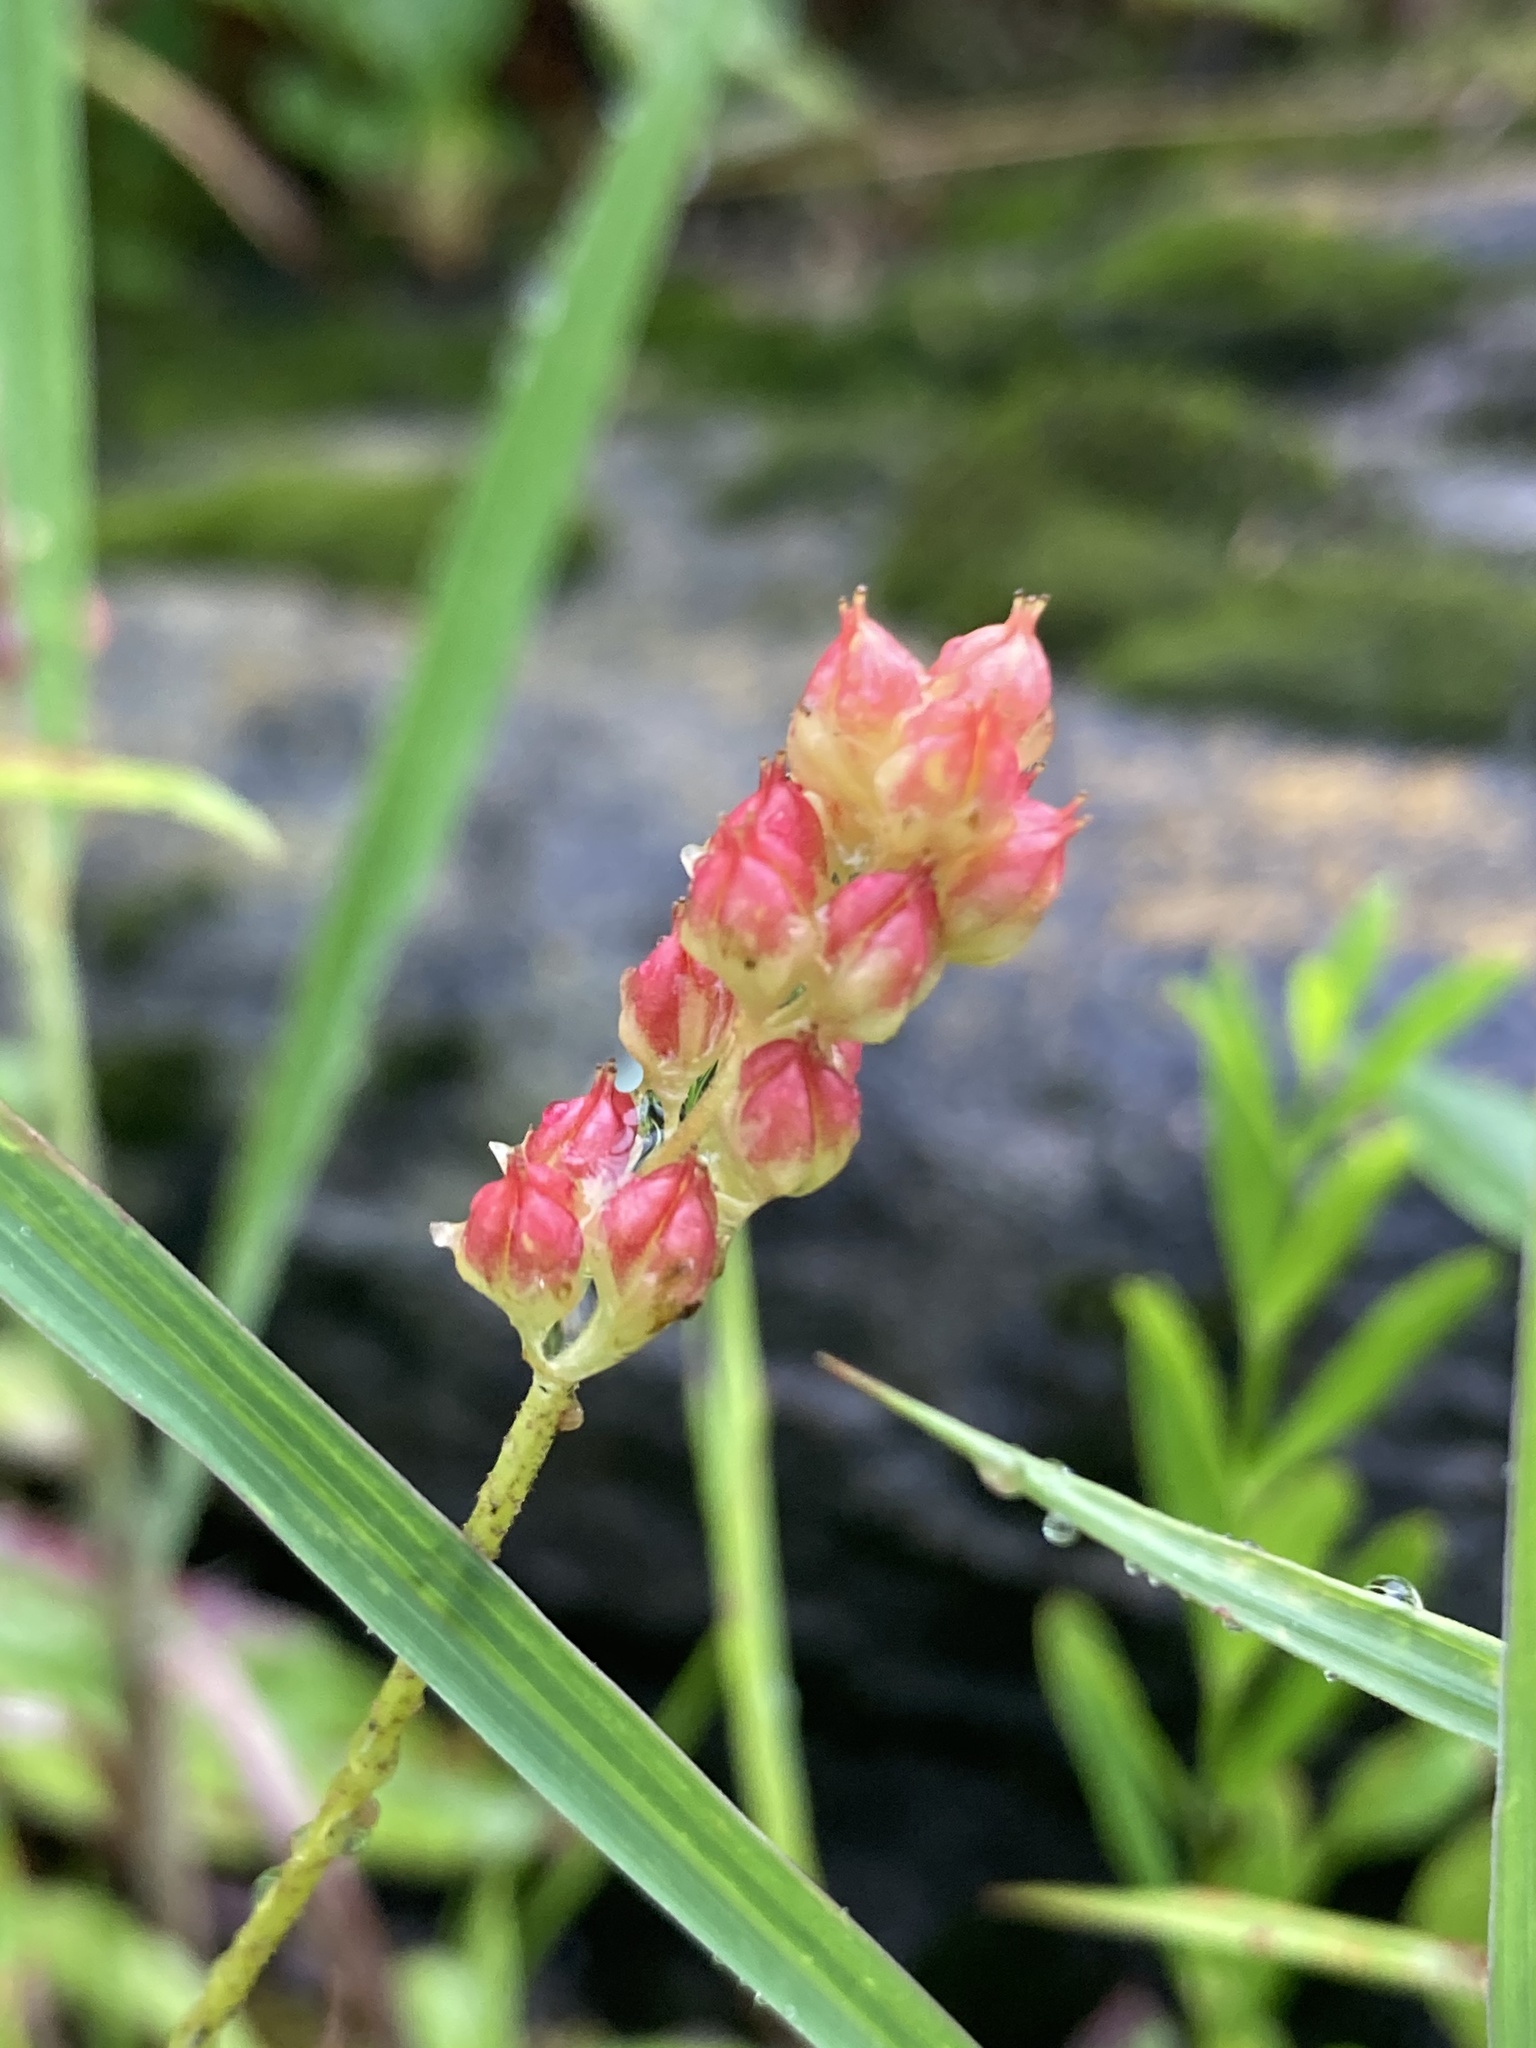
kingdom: Plantae
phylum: Tracheophyta
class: Liliopsida
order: Alismatales
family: Tofieldiaceae
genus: Triantha
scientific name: Triantha glutinosa
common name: Glutinous tofieldia
